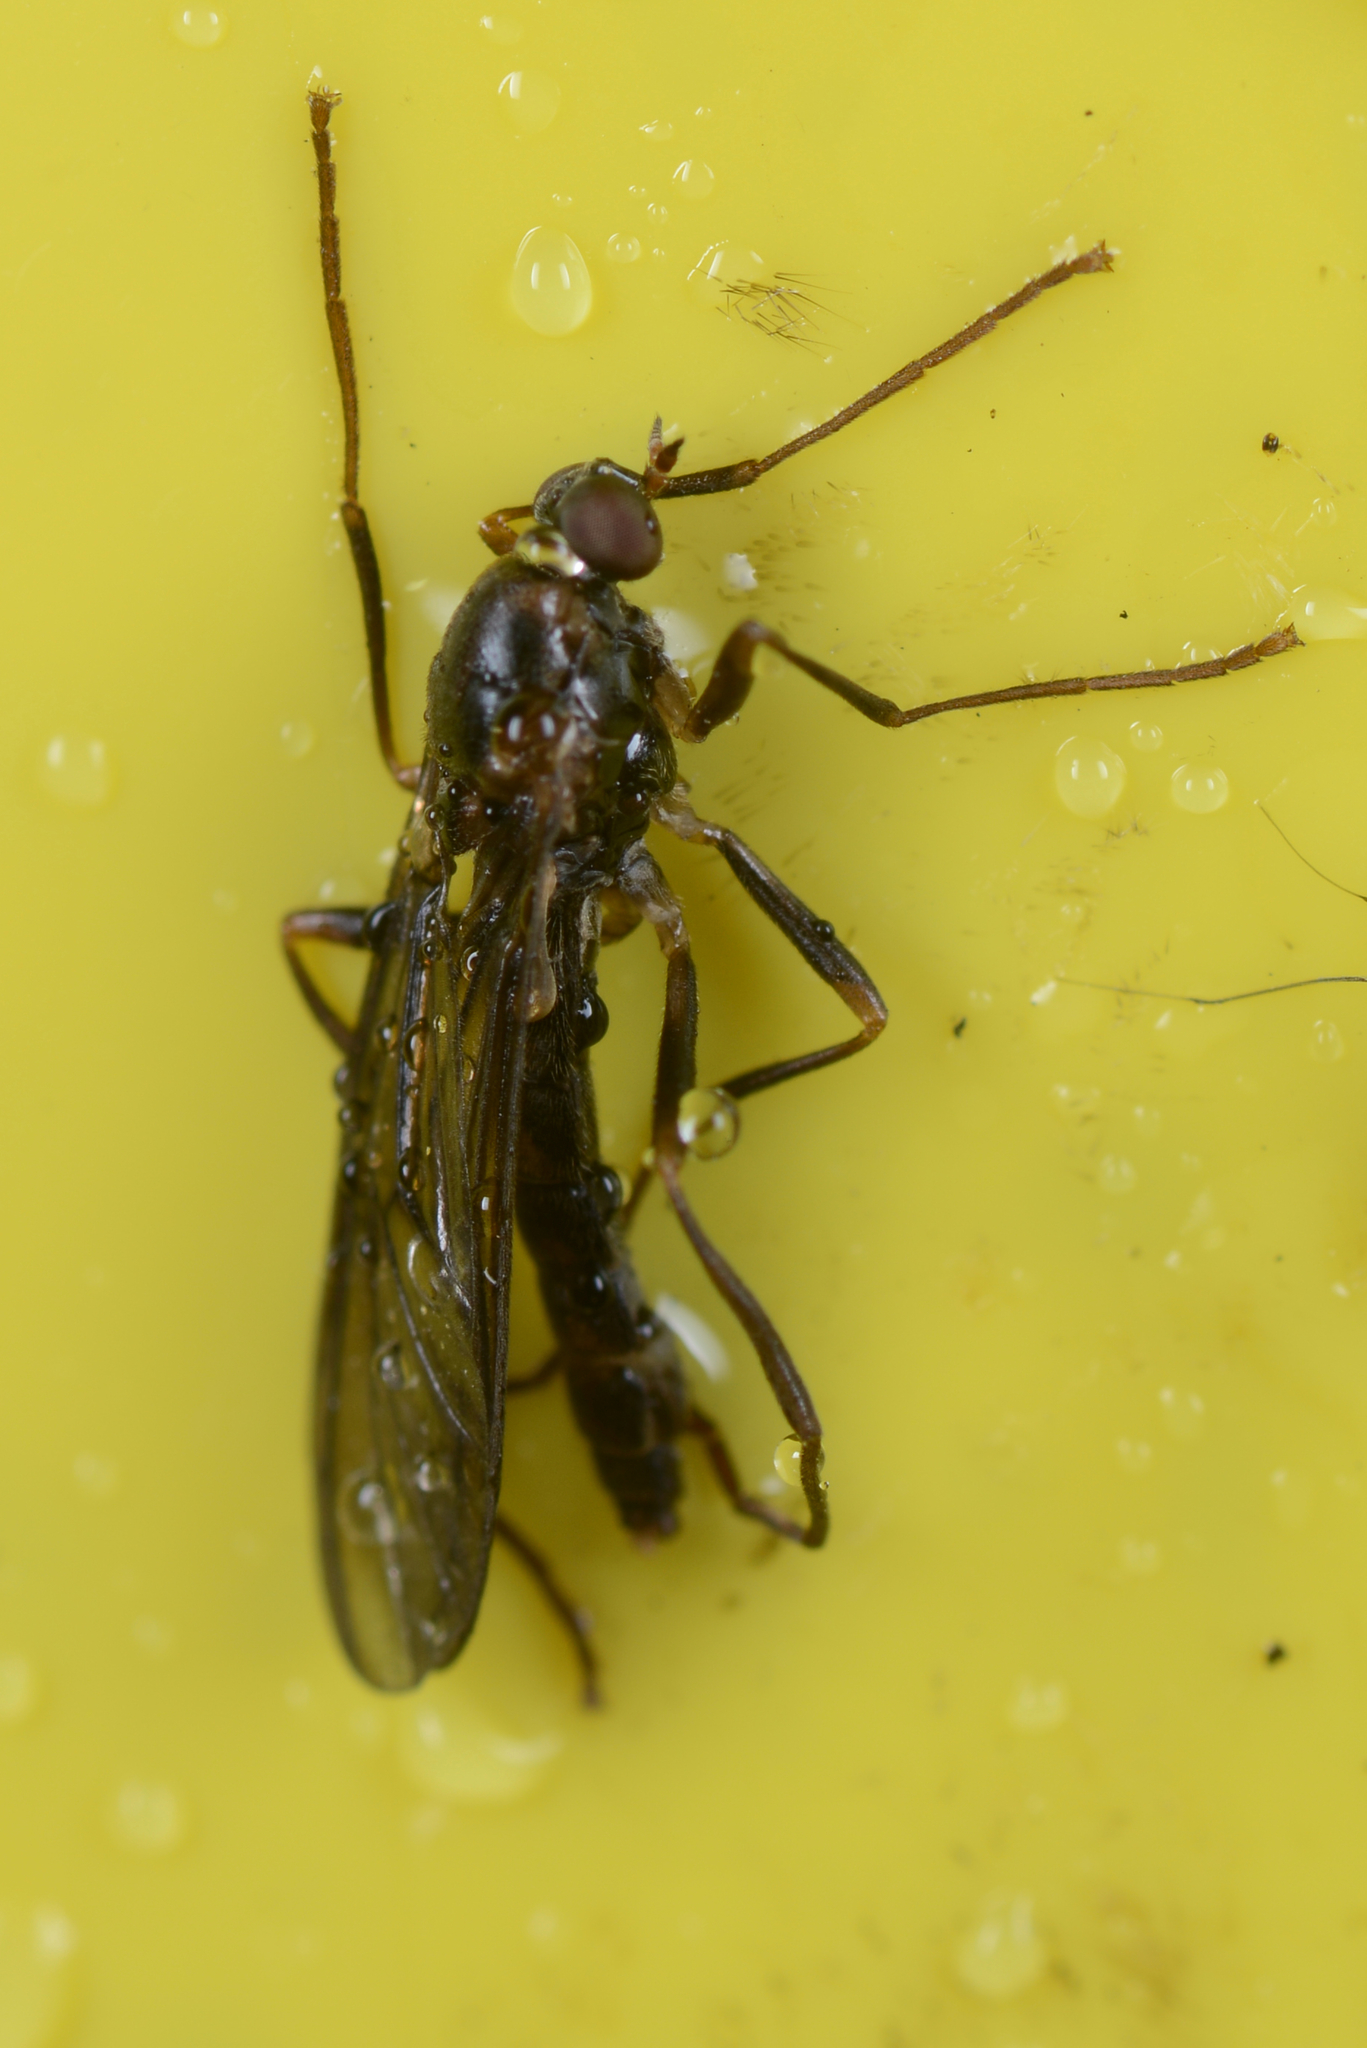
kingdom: Animalia
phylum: Arthropoda
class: Insecta
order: Diptera
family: Stratiomyidae
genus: Boreoides
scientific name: Boreoides tasmaniensis
